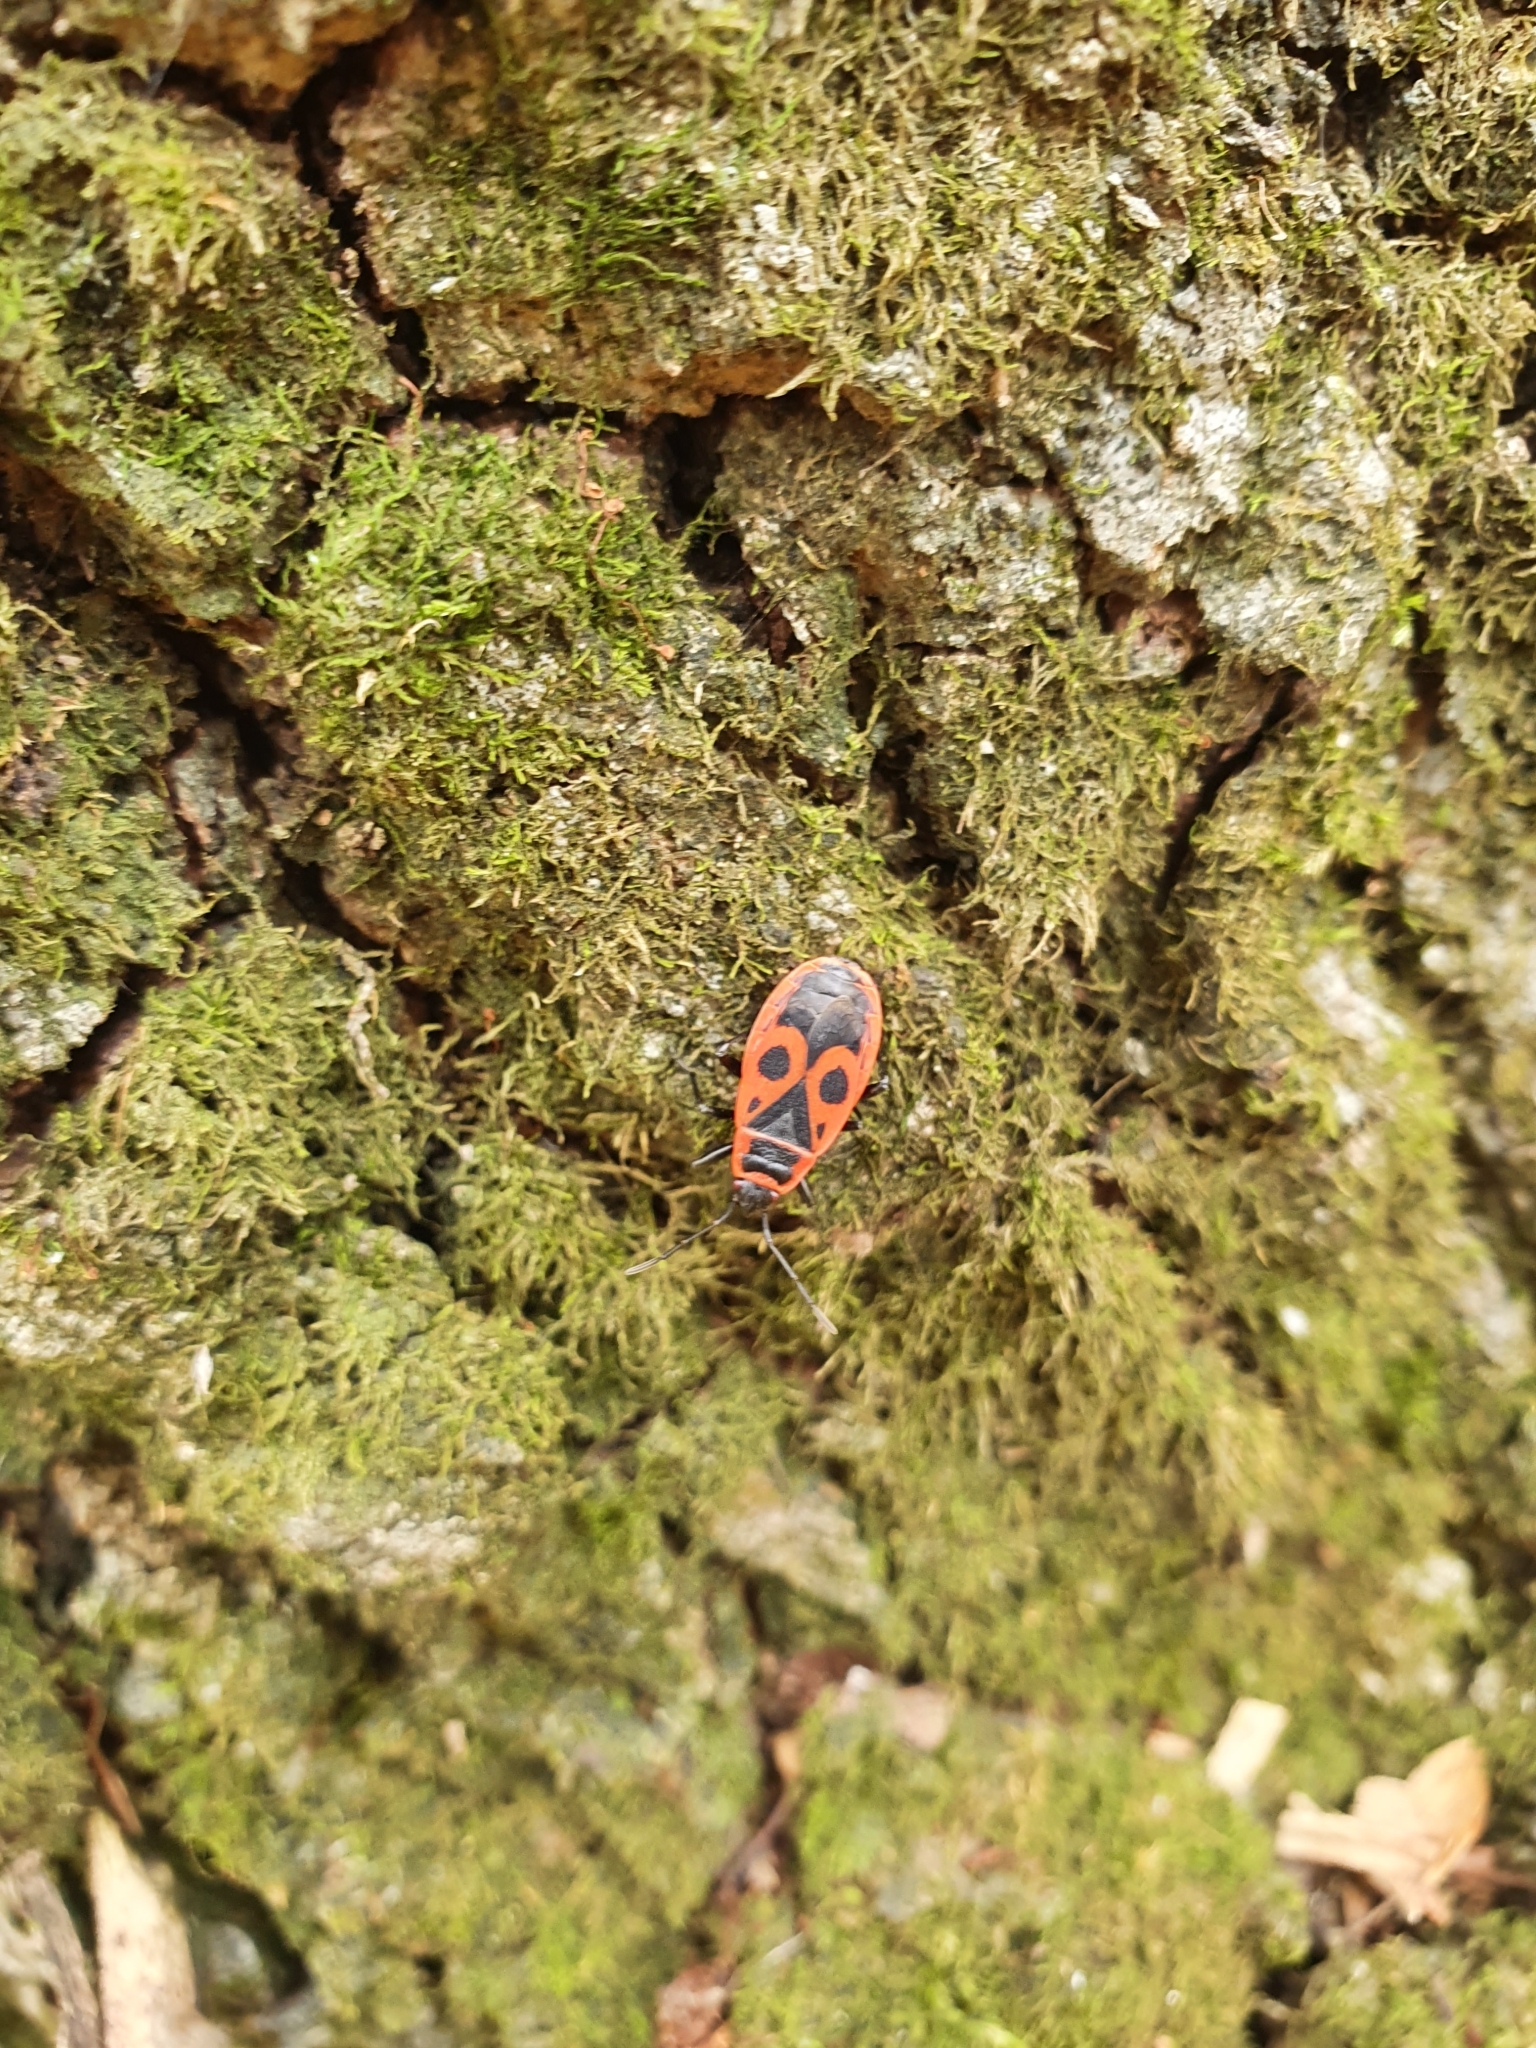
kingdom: Animalia
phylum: Arthropoda
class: Insecta
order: Hemiptera
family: Pyrrhocoridae
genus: Pyrrhocoris
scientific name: Pyrrhocoris apterus
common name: Firebug
